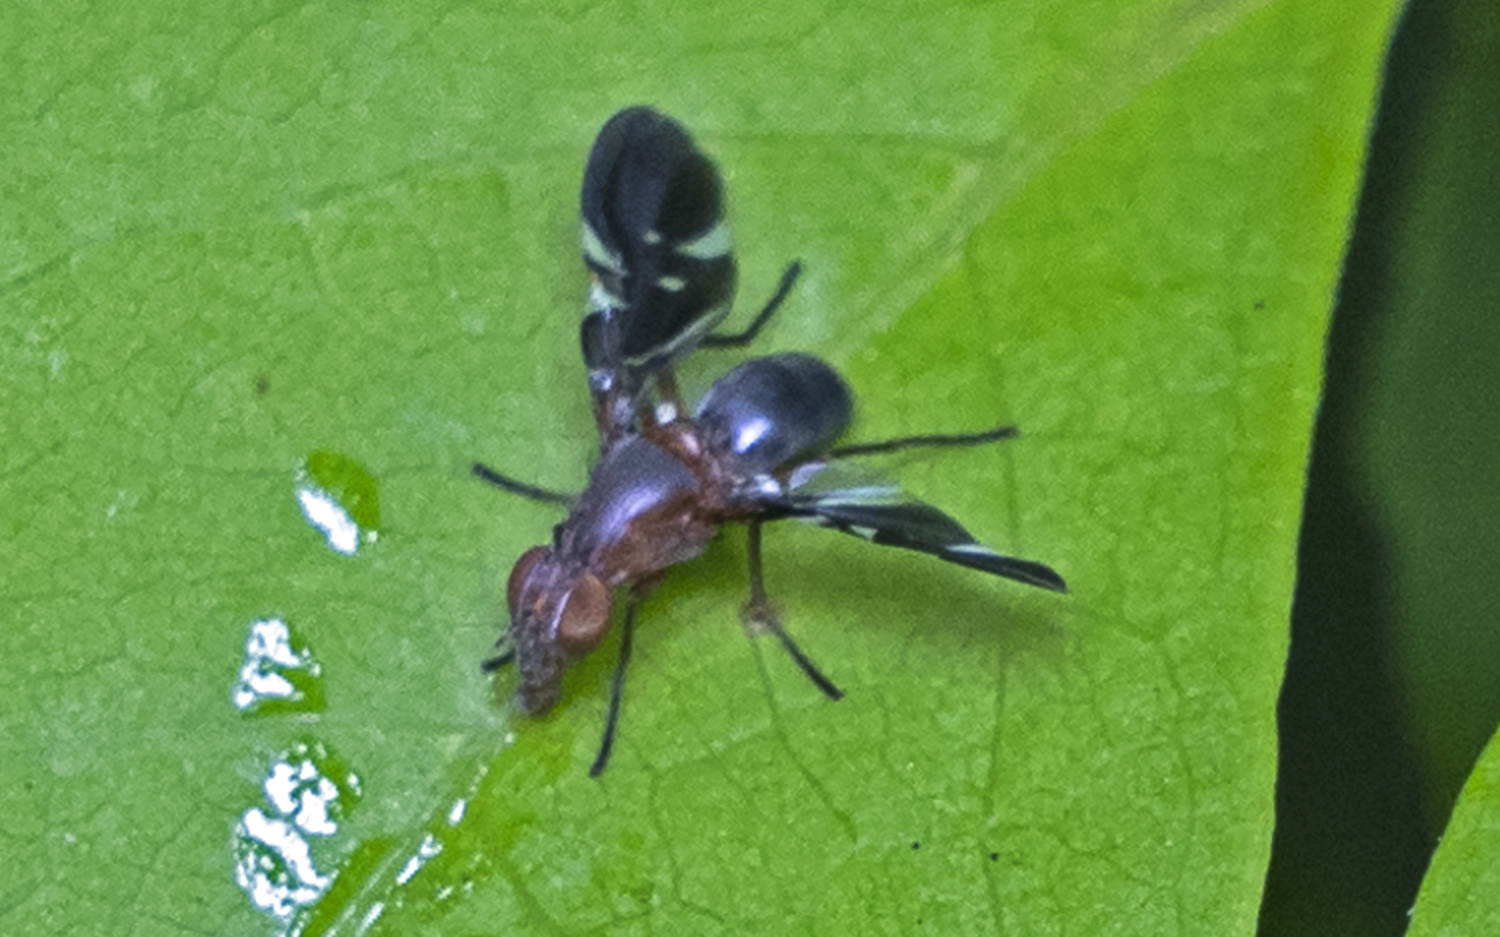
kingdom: Animalia
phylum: Arthropoda
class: Insecta
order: Diptera
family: Ulidiidae
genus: Delphinia
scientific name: Delphinia picta
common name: Common picture-winged fly
